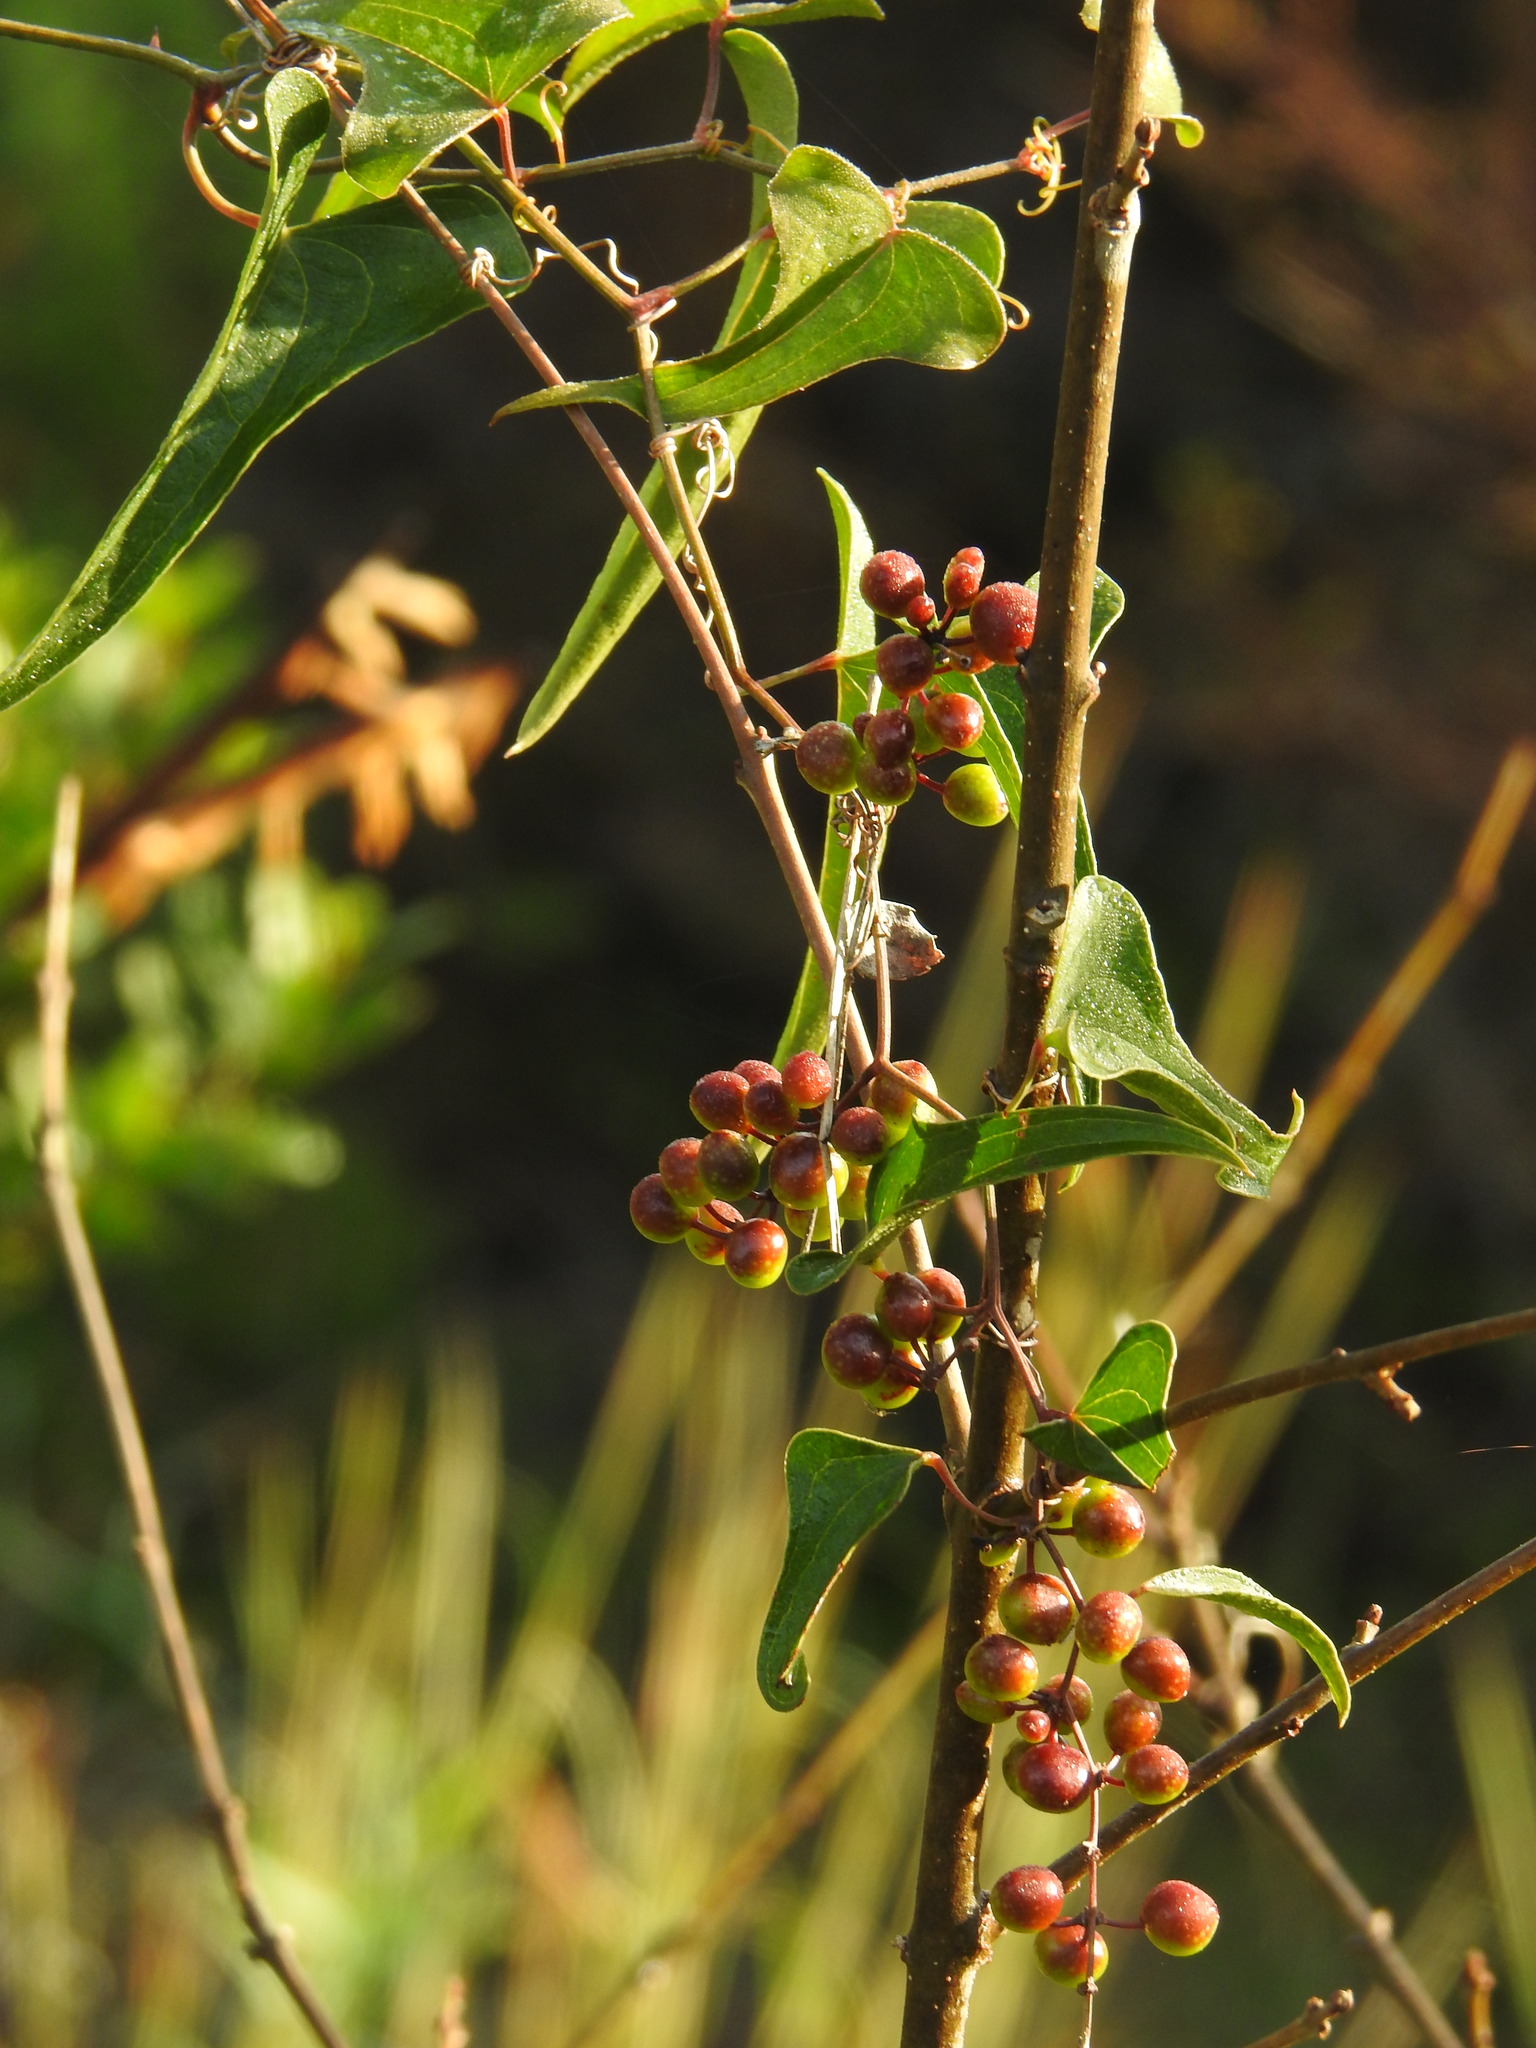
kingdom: Plantae
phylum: Tracheophyta
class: Liliopsida
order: Liliales
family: Smilacaceae
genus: Smilax
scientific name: Smilax aspera
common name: Common smilax
